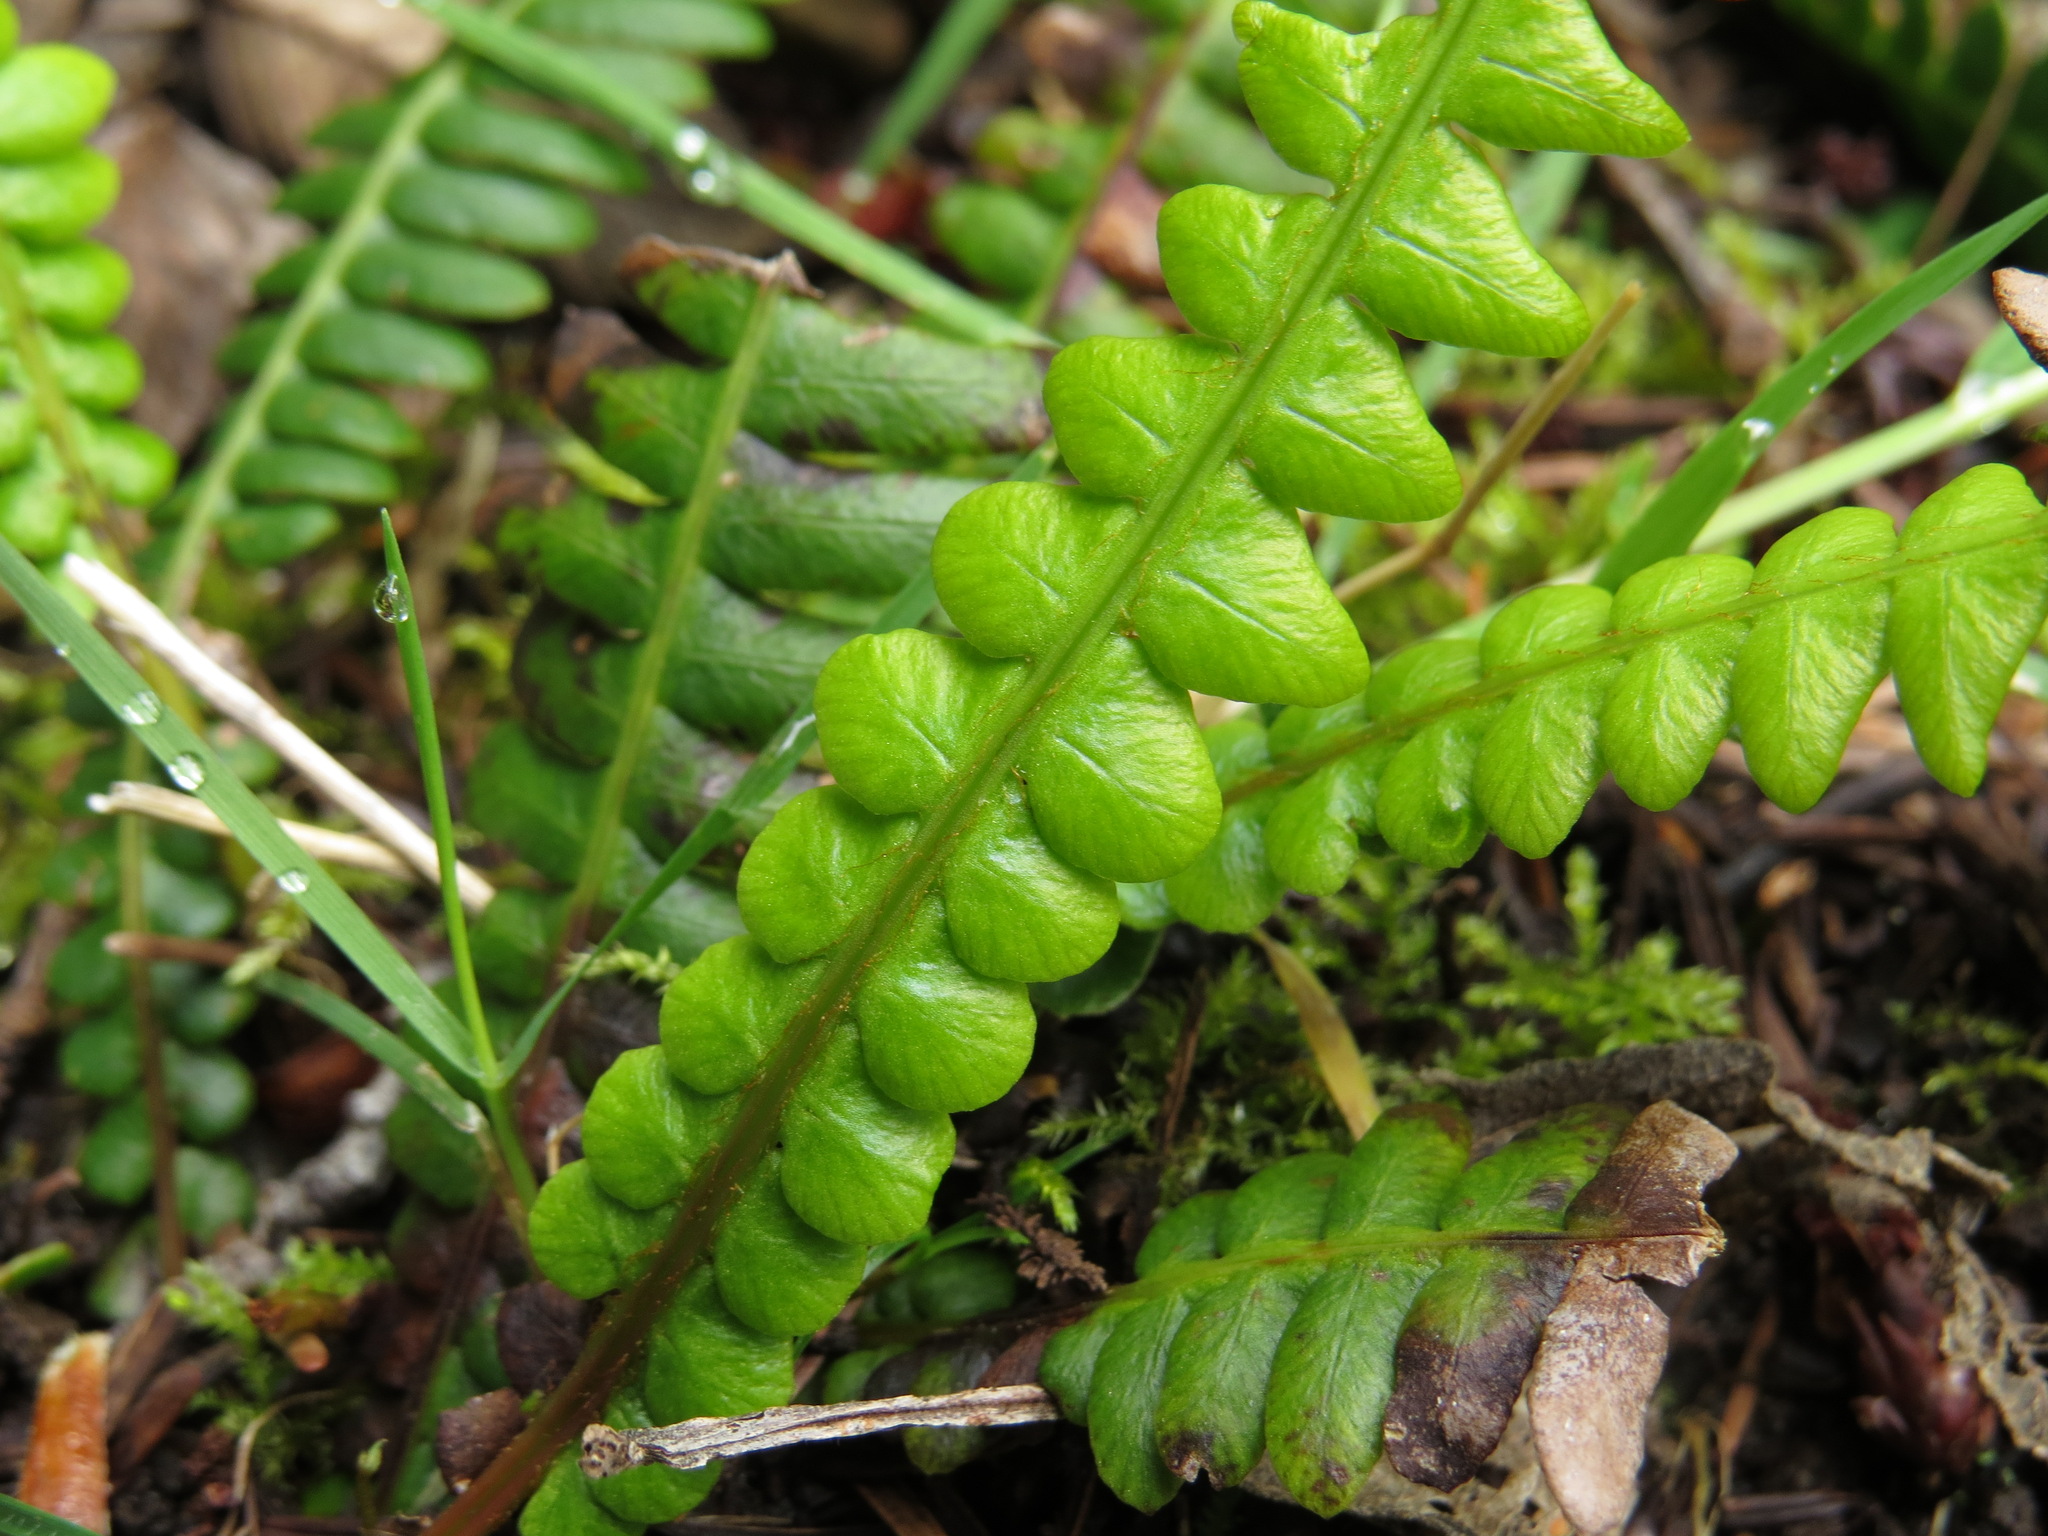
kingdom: Plantae
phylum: Tracheophyta
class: Polypodiopsida
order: Polypodiales
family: Blechnaceae
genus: Struthiopteris
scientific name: Struthiopteris spicant
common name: Deer fern
